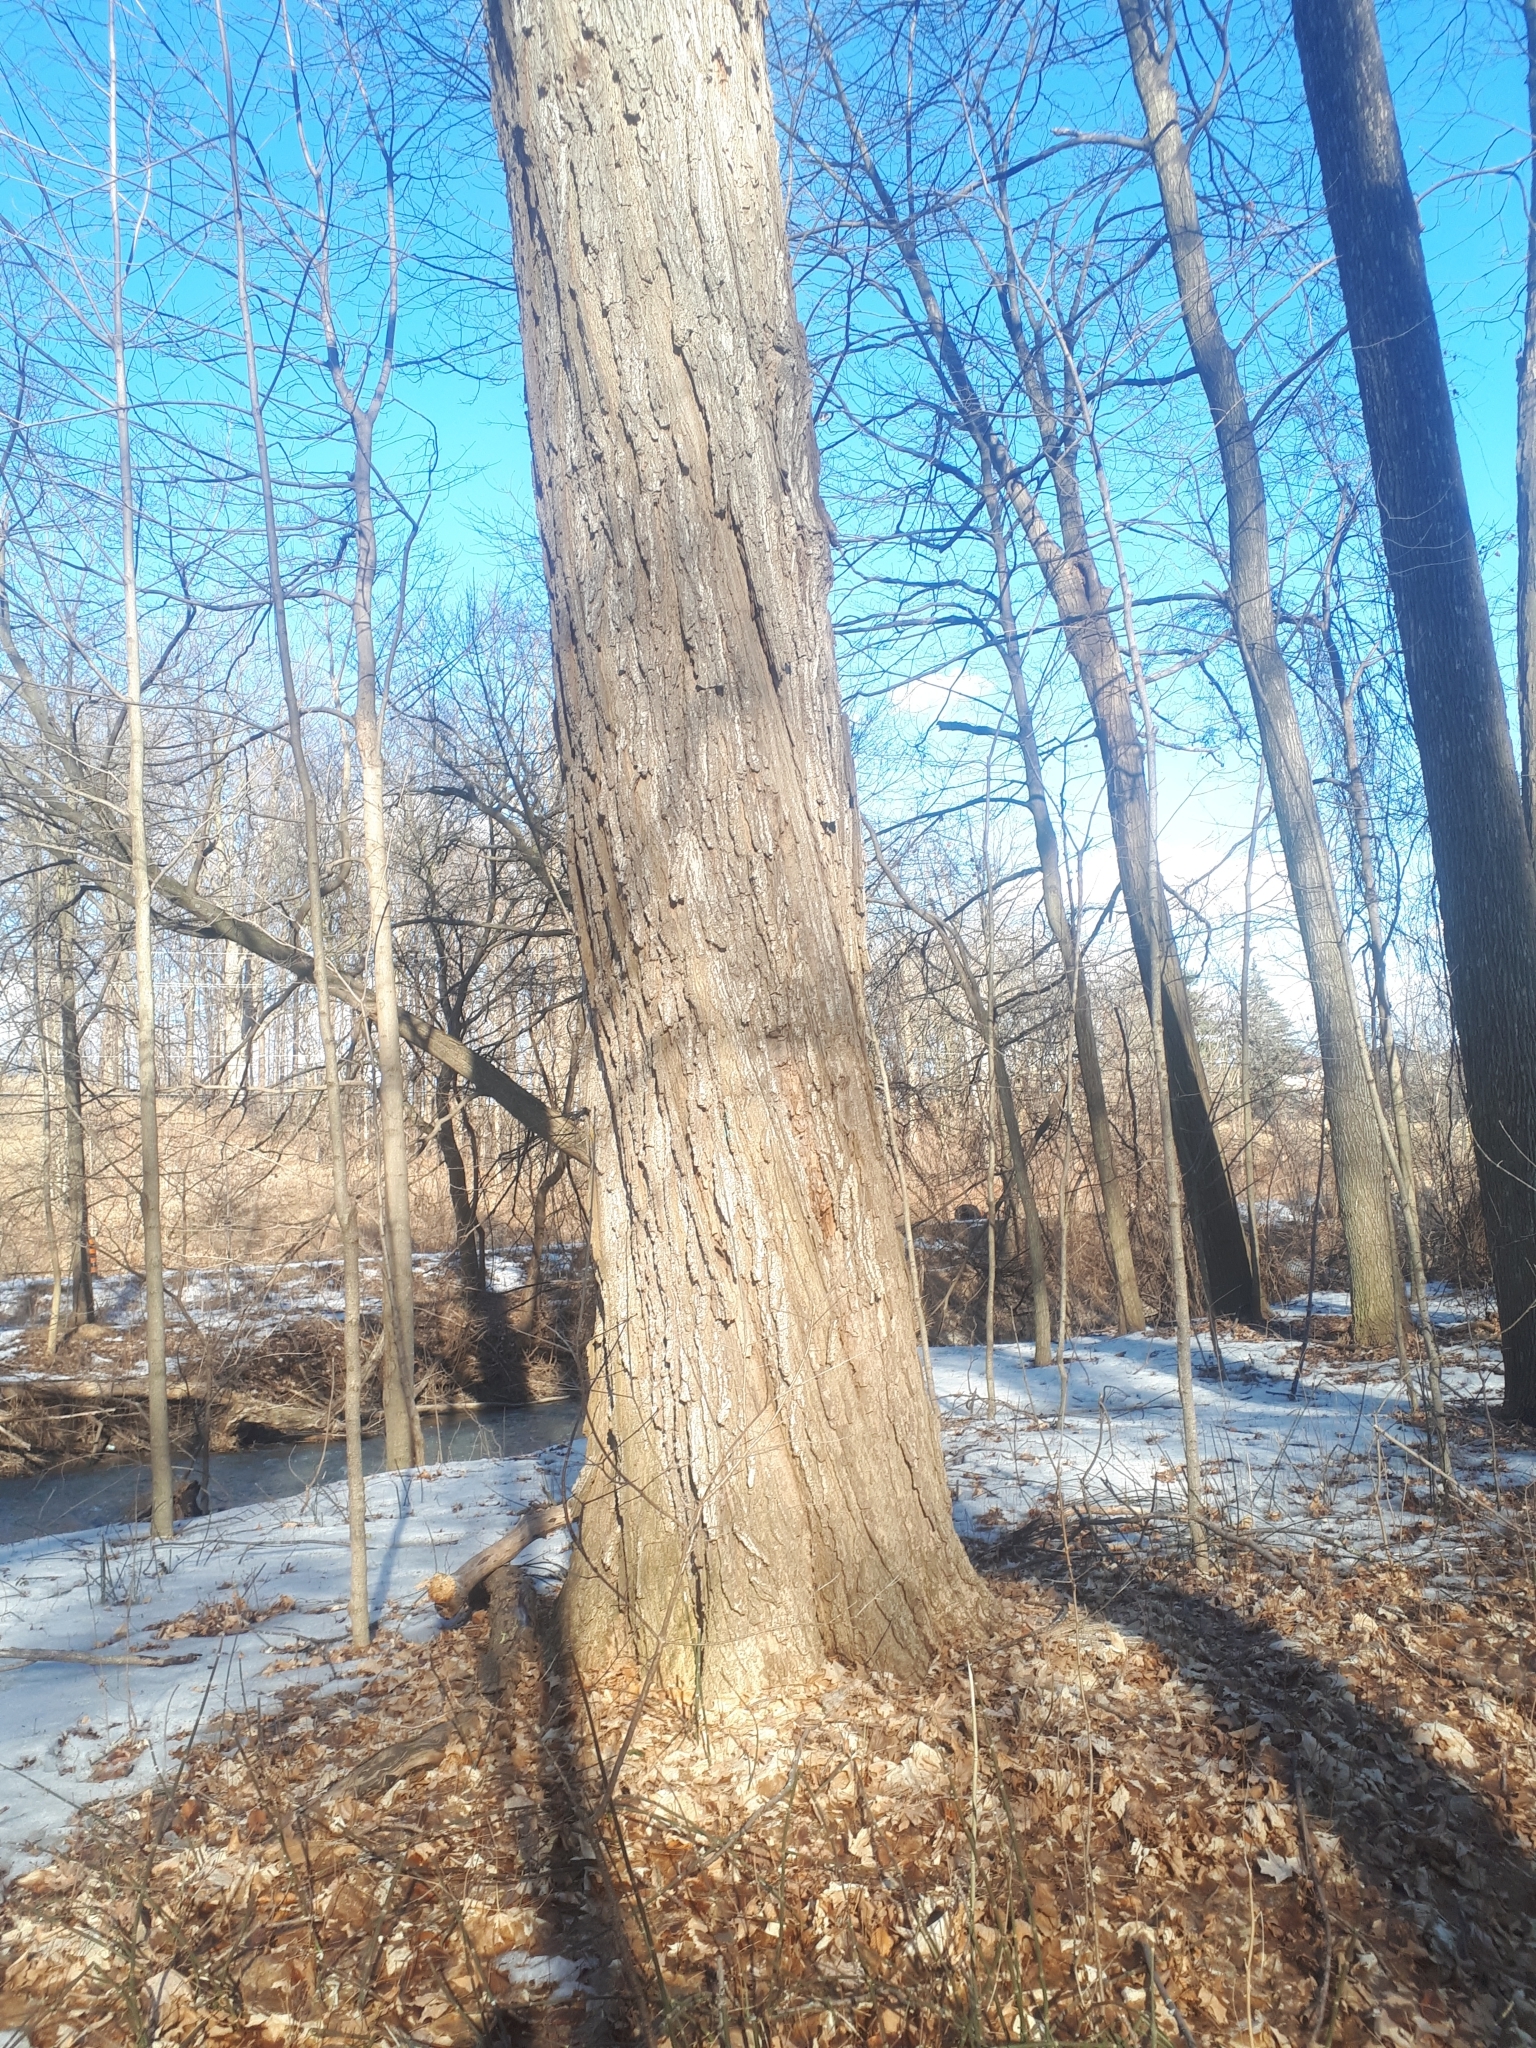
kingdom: Plantae
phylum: Tracheophyta
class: Magnoliopsida
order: Sapindales
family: Sapindaceae
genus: Acer
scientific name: Acer saccharum
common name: Sugar maple
